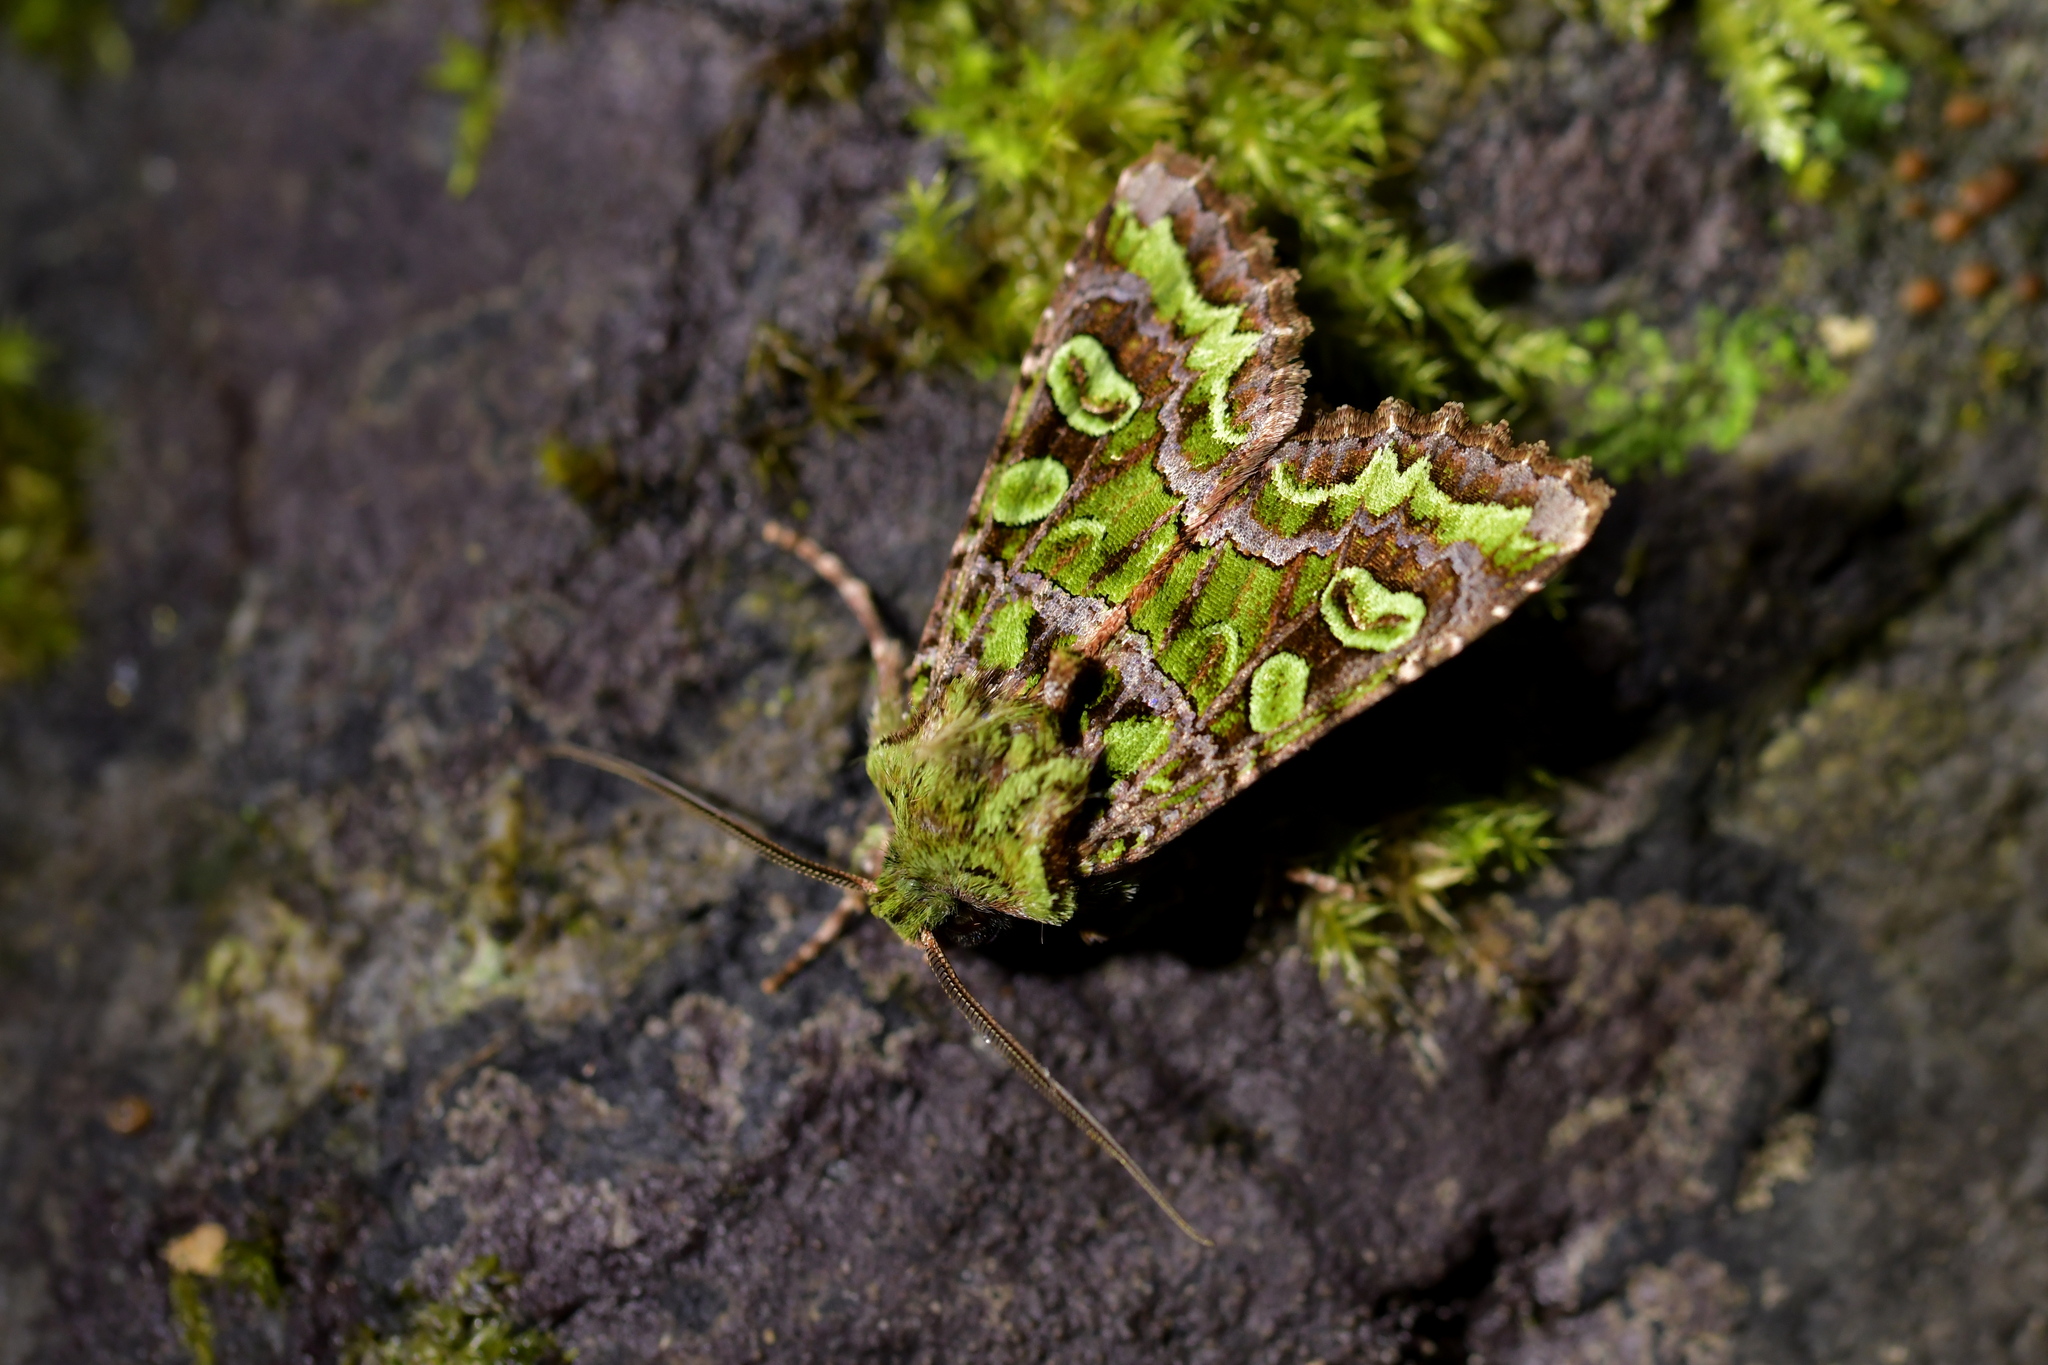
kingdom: Animalia
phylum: Arthropoda
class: Insecta
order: Lepidoptera
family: Noctuidae
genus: Ichneutica
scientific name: Ichneutica chlorodonta
